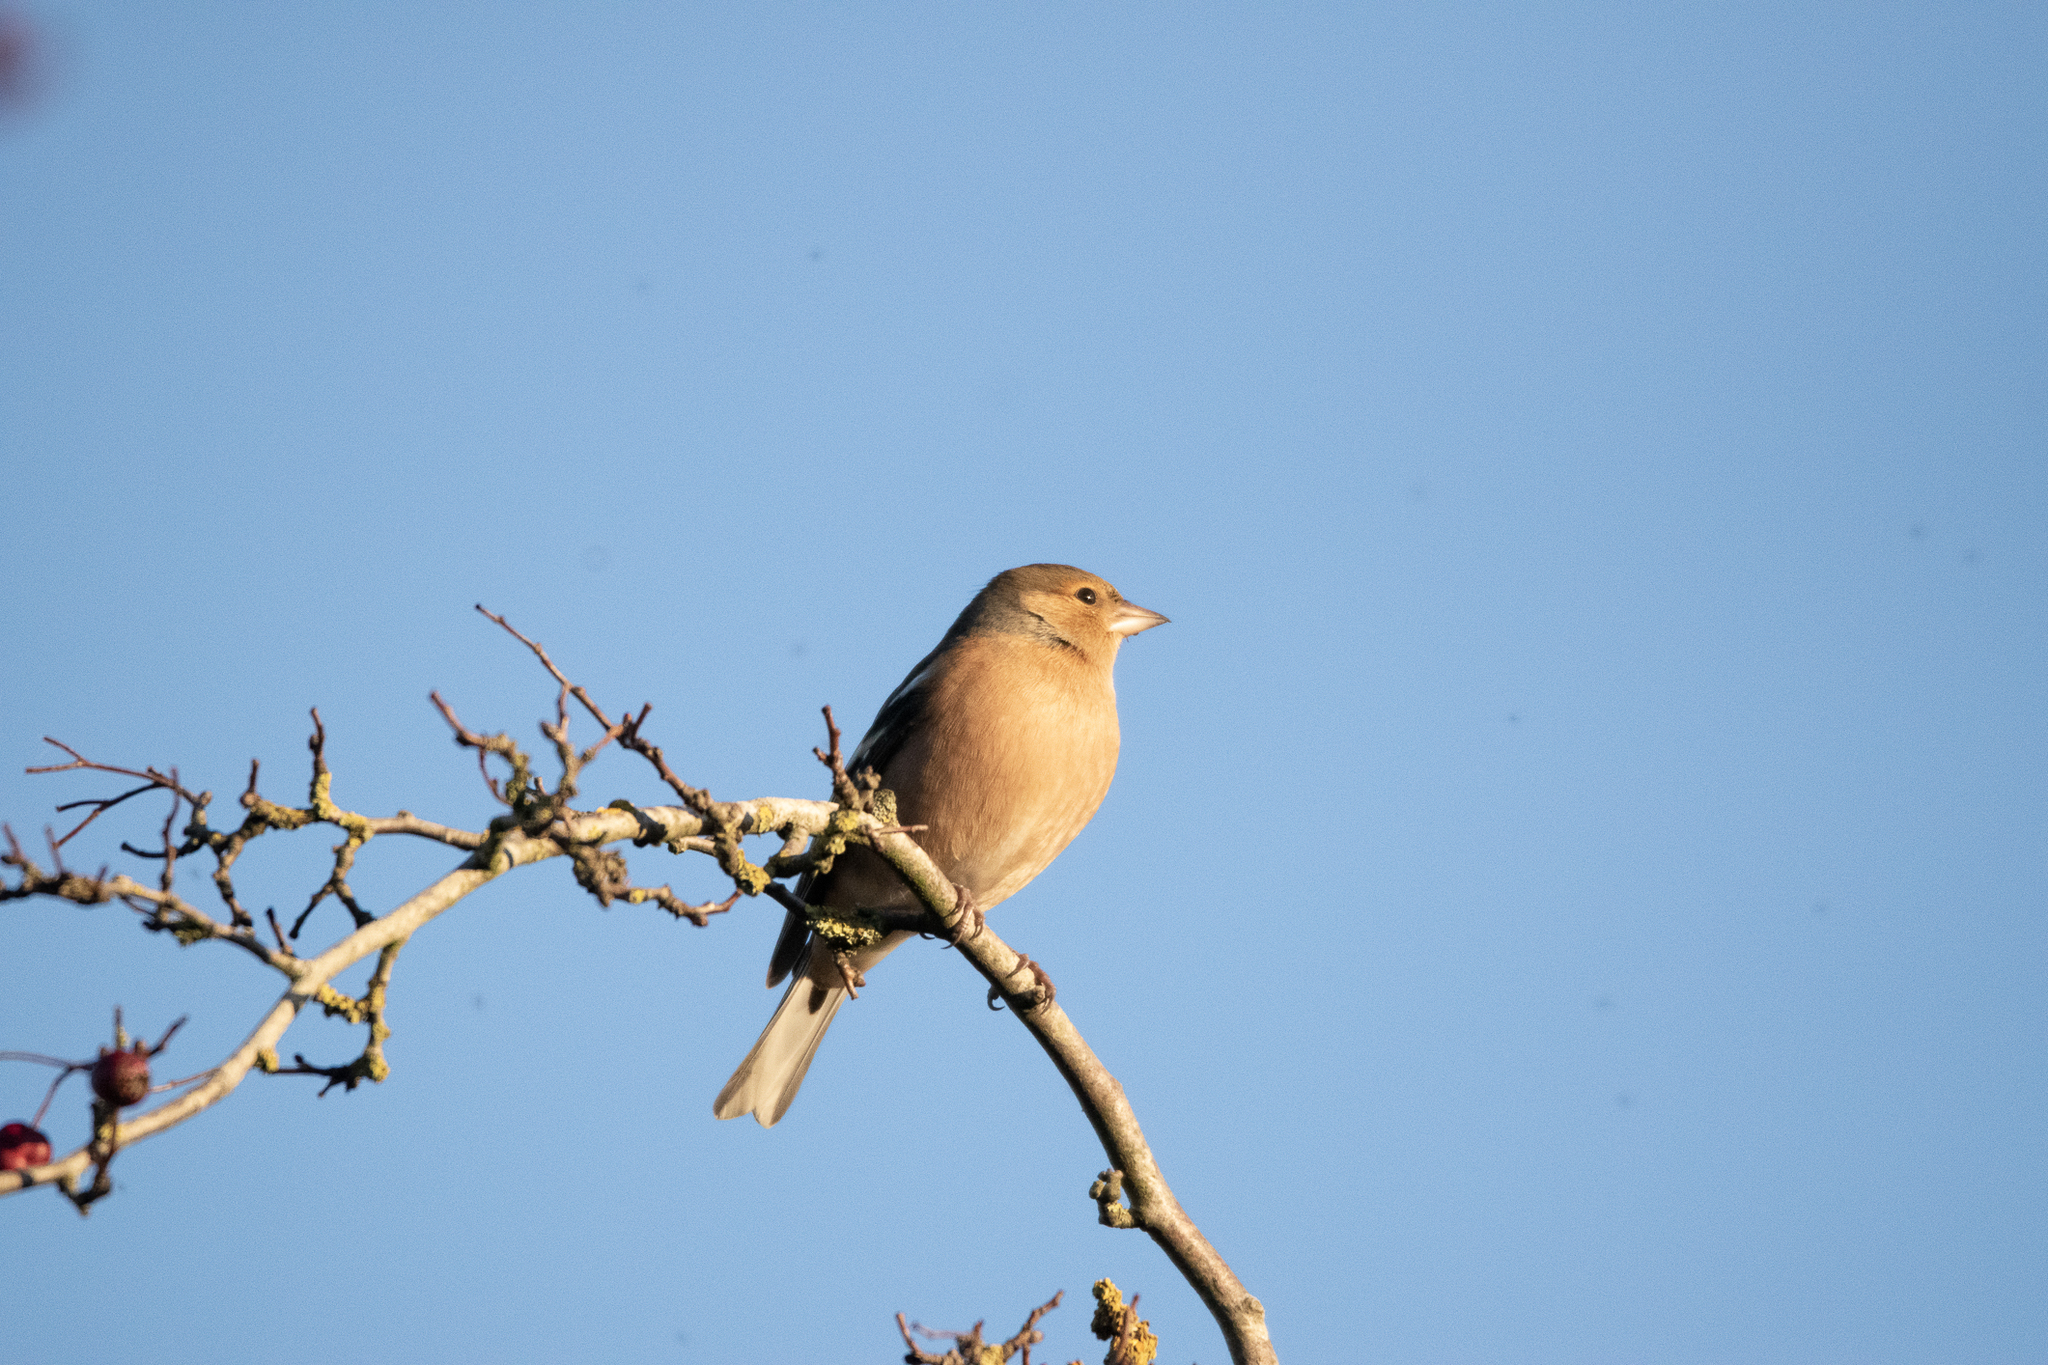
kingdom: Animalia
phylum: Chordata
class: Aves
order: Passeriformes
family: Fringillidae
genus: Fringilla
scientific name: Fringilla coelebs
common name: Common chaffinch
